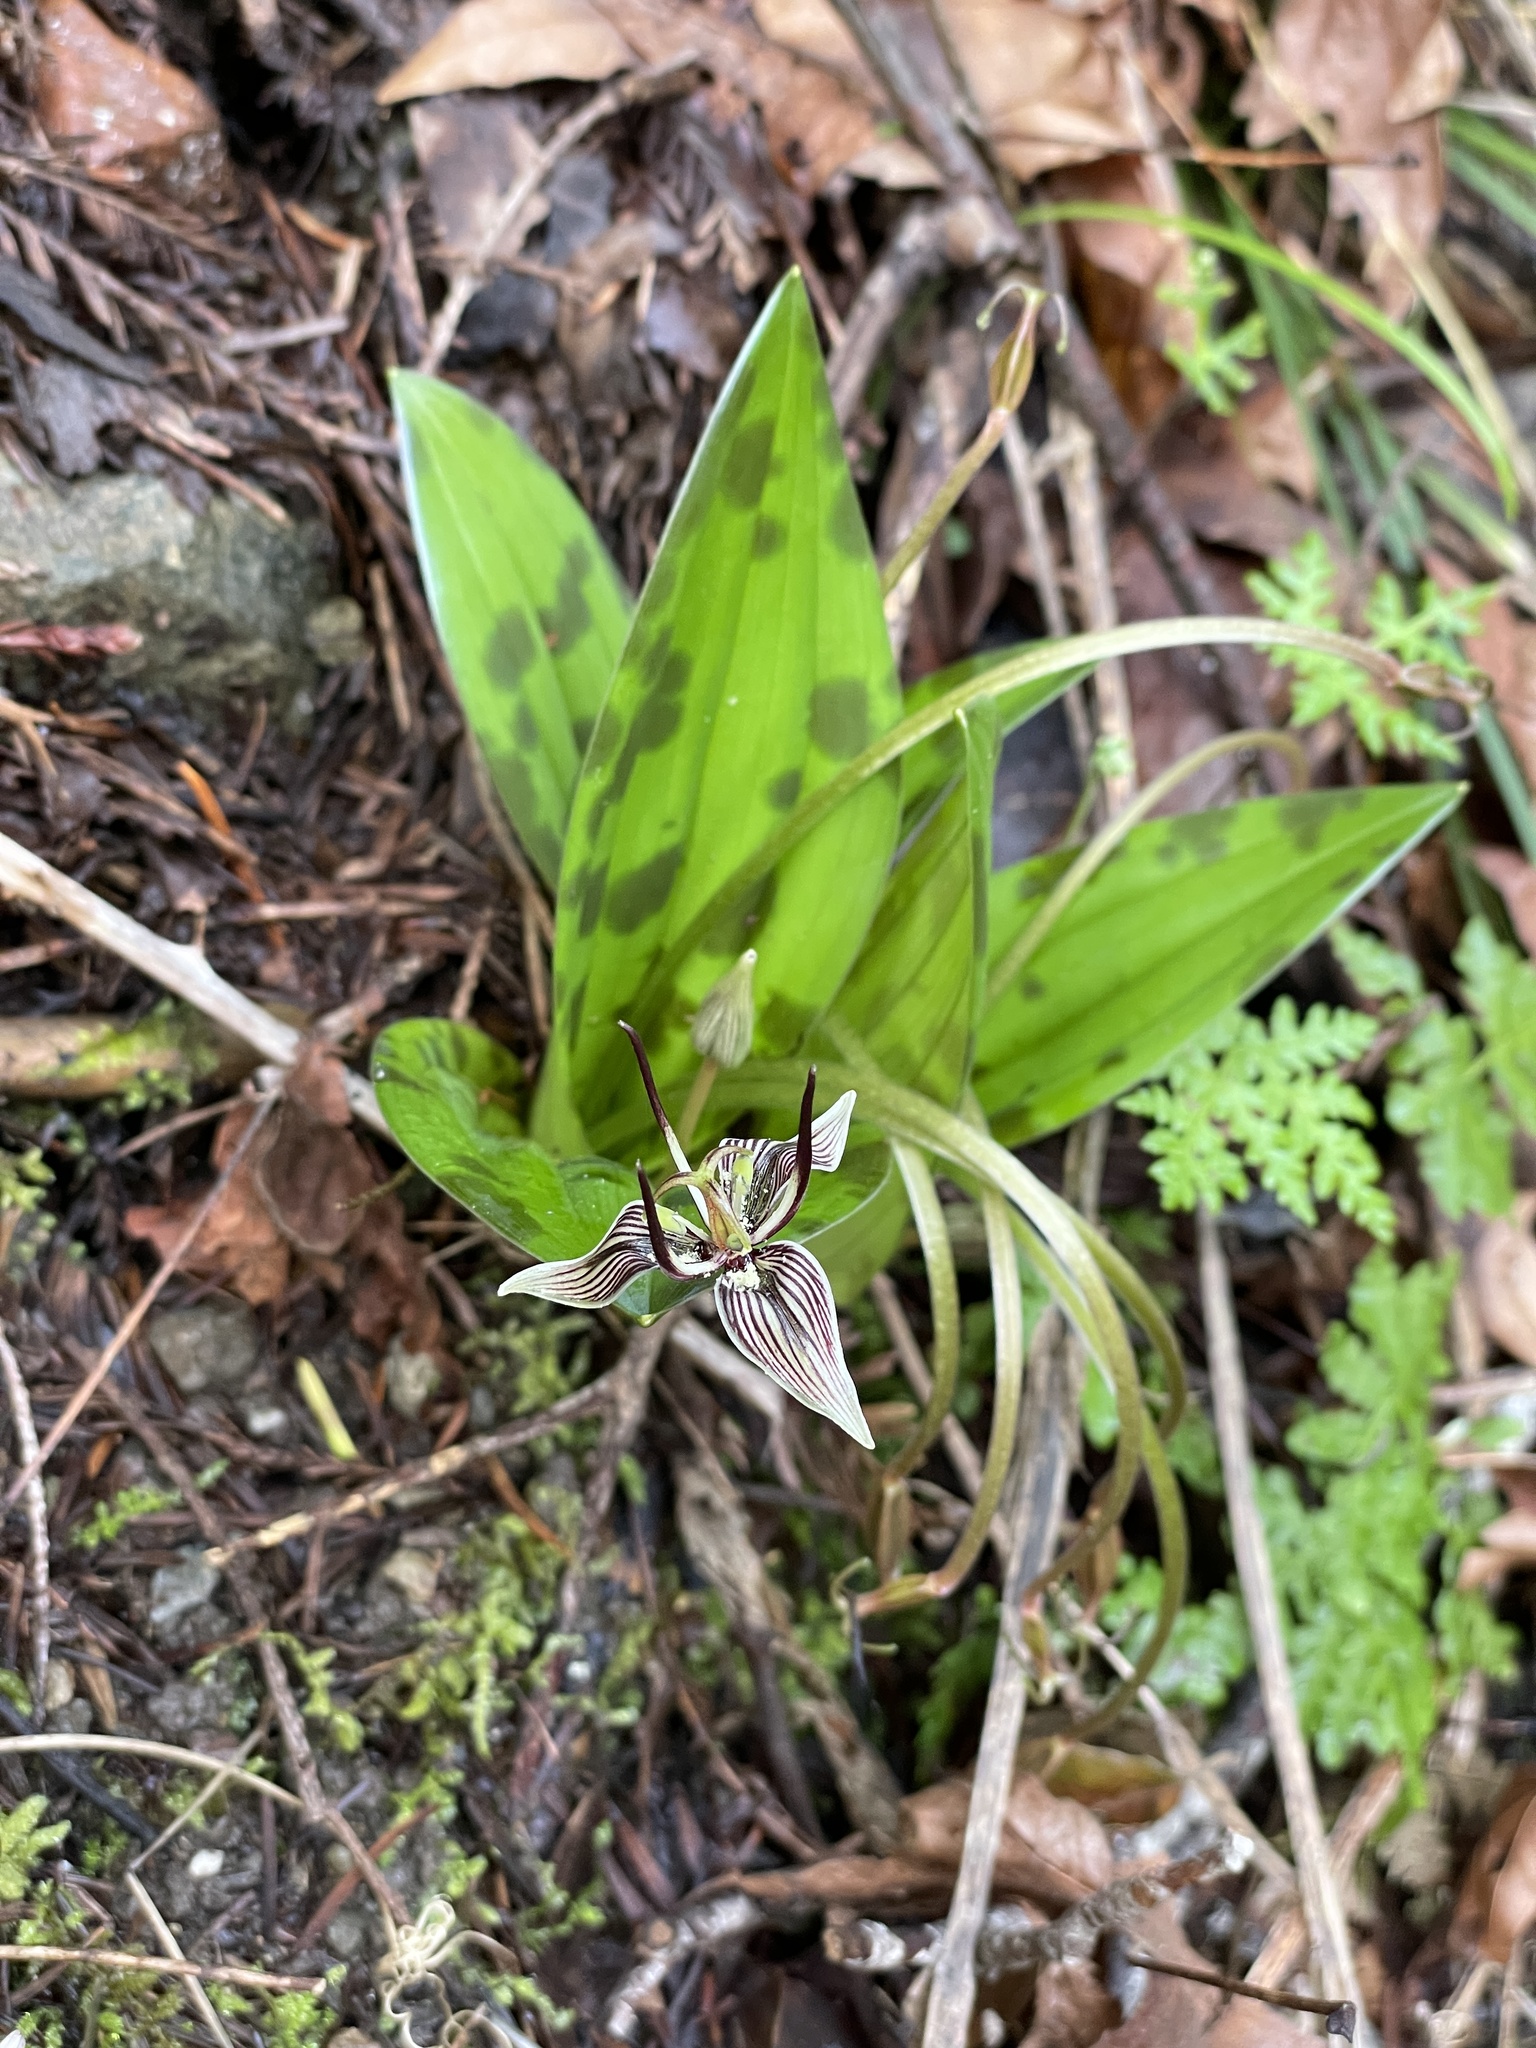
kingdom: Plantae
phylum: Tracheophyta
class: Liliopsida
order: Liliales
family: Liliaceae
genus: Scoliopus
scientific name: Scoliopus bigelovii
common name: Foetid adder's-tongue
